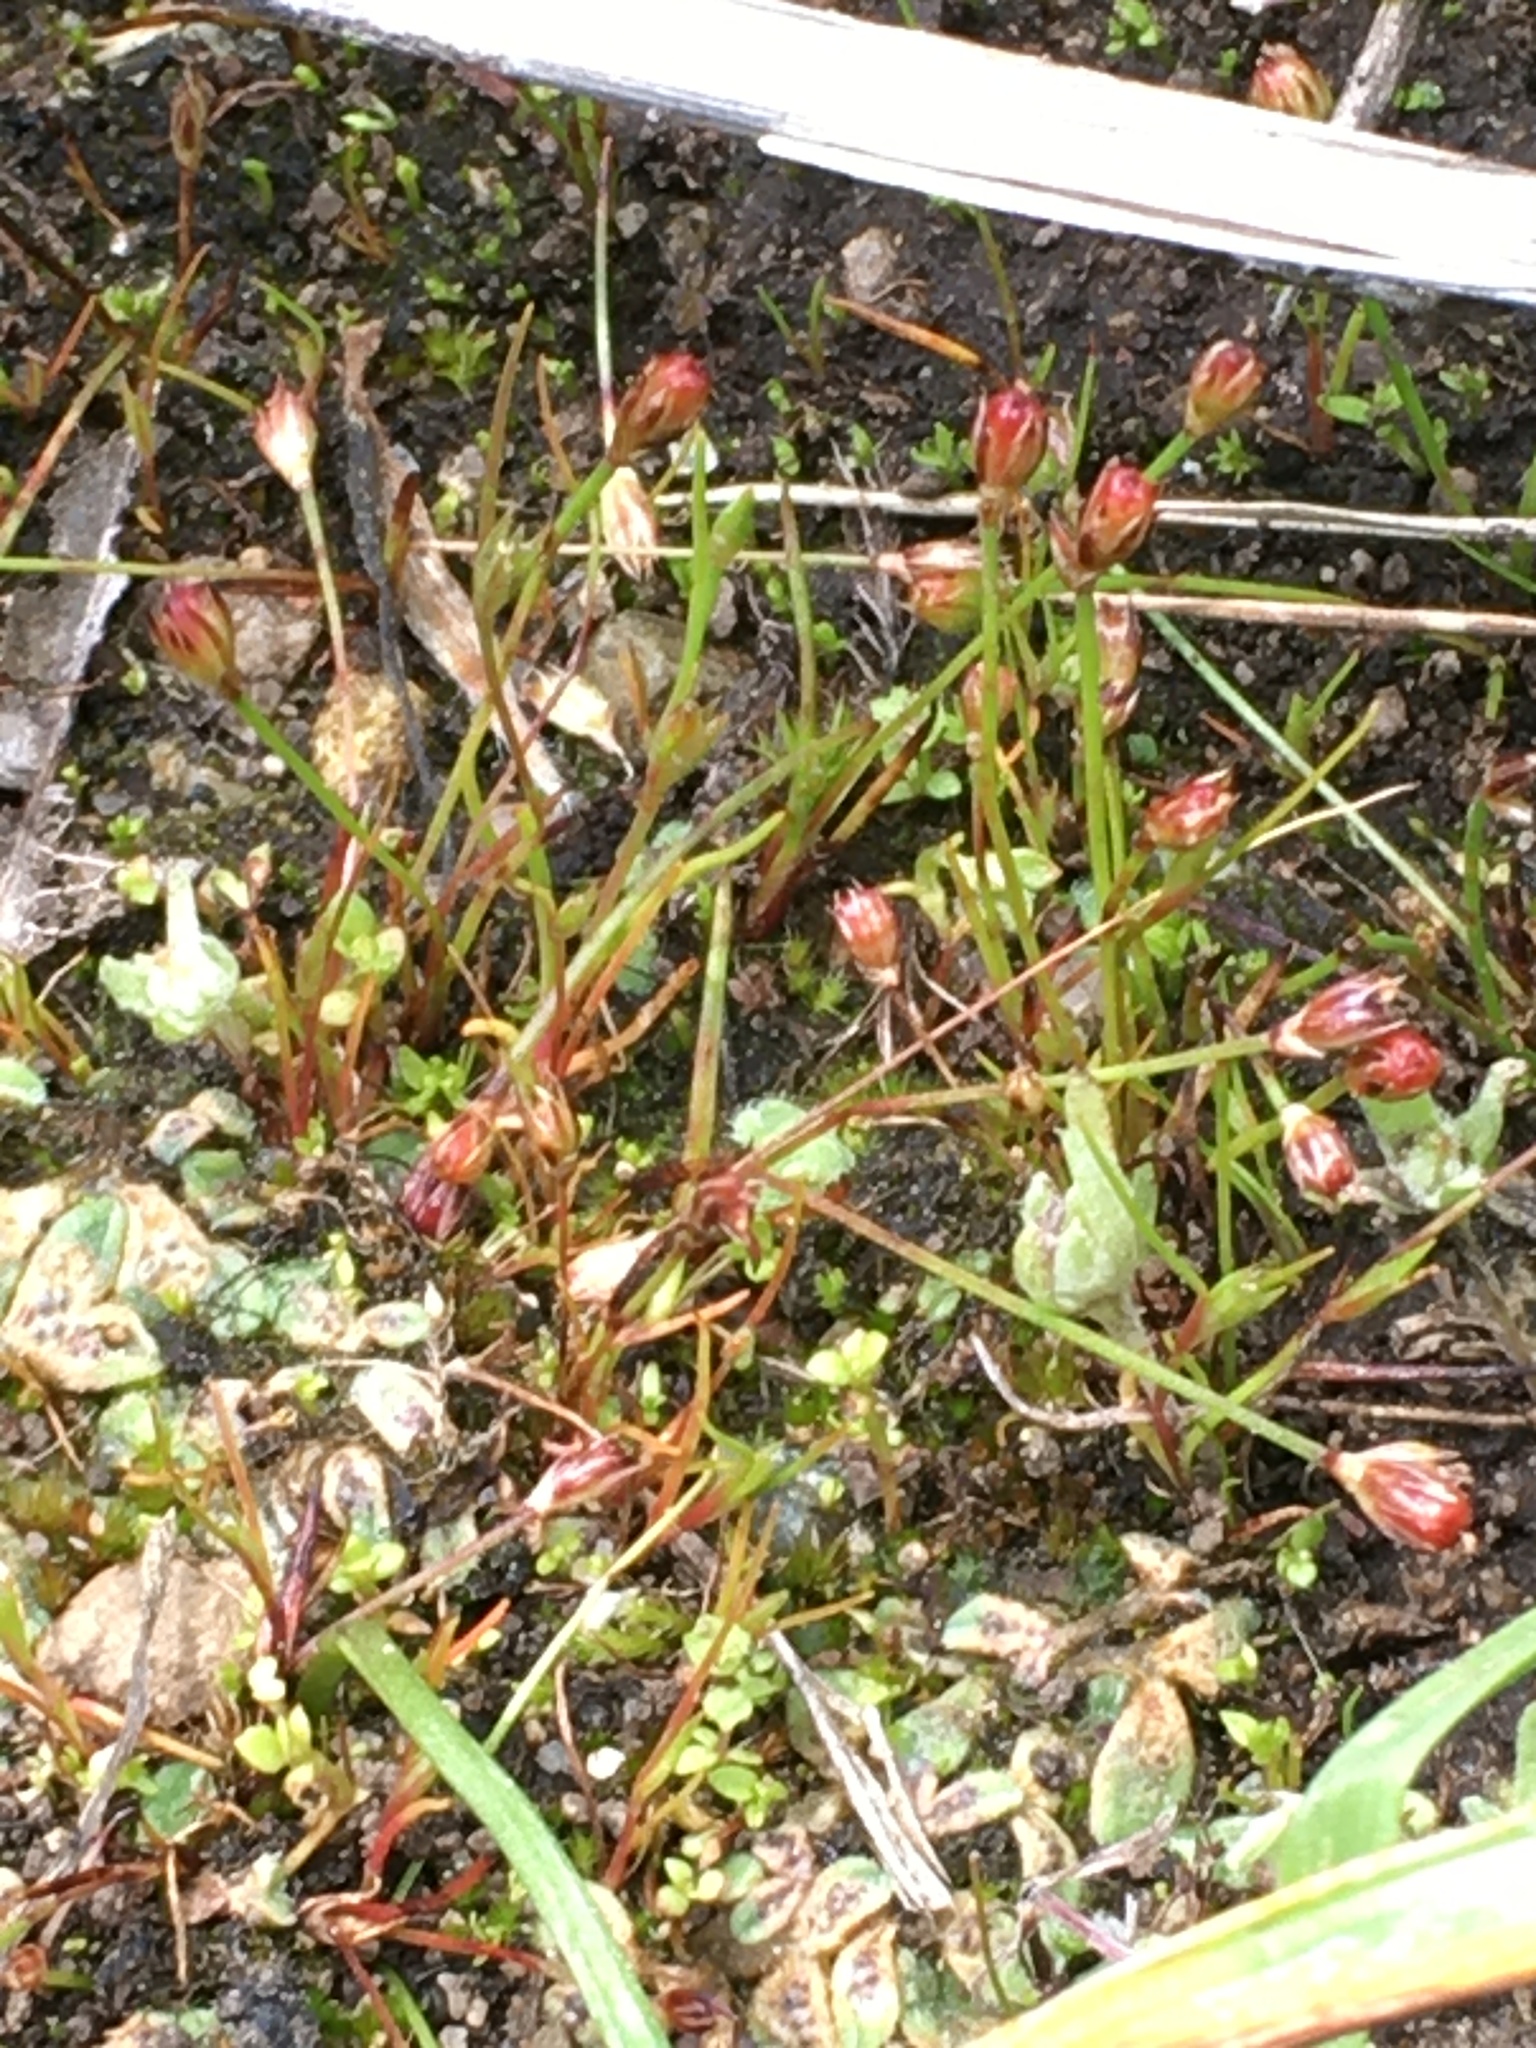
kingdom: Plantae
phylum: Tracheophyta
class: Liliopsida
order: Poales
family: Juncaceae
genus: Juncus
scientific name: Juncus kelloggii
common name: Kellogg's dwarf rush
